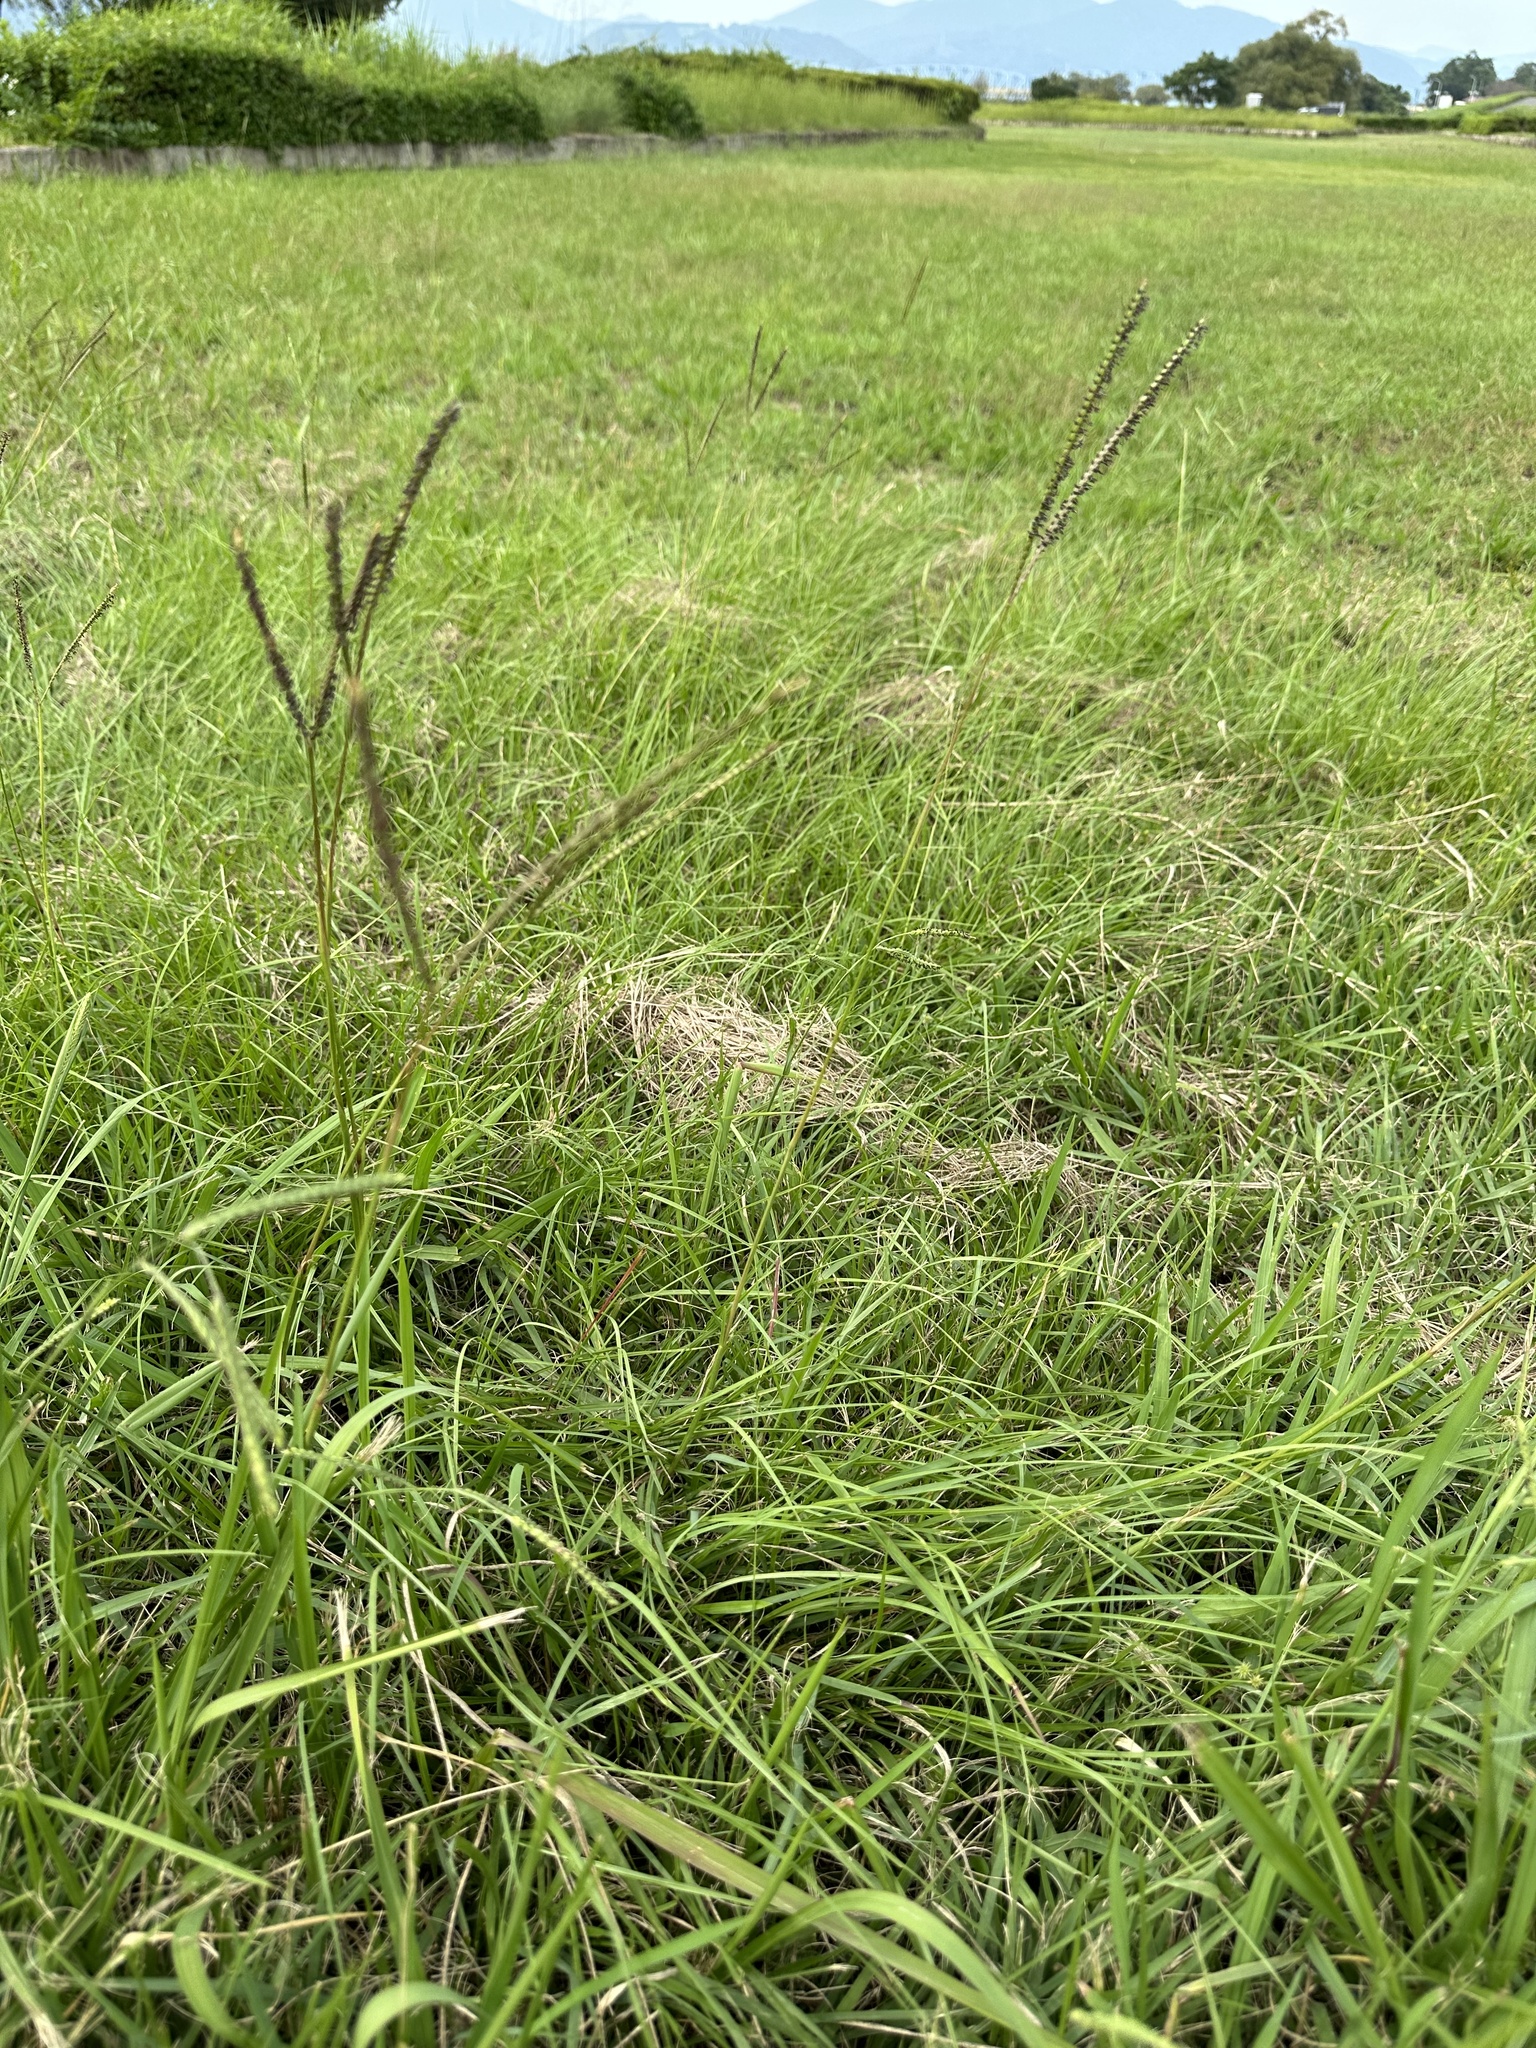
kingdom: Plantae
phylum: Tracheophyta
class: Liliopsida
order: Poales
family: Poaceae
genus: Paspalum
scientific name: Paspalum notatum
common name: Bahiagrass
